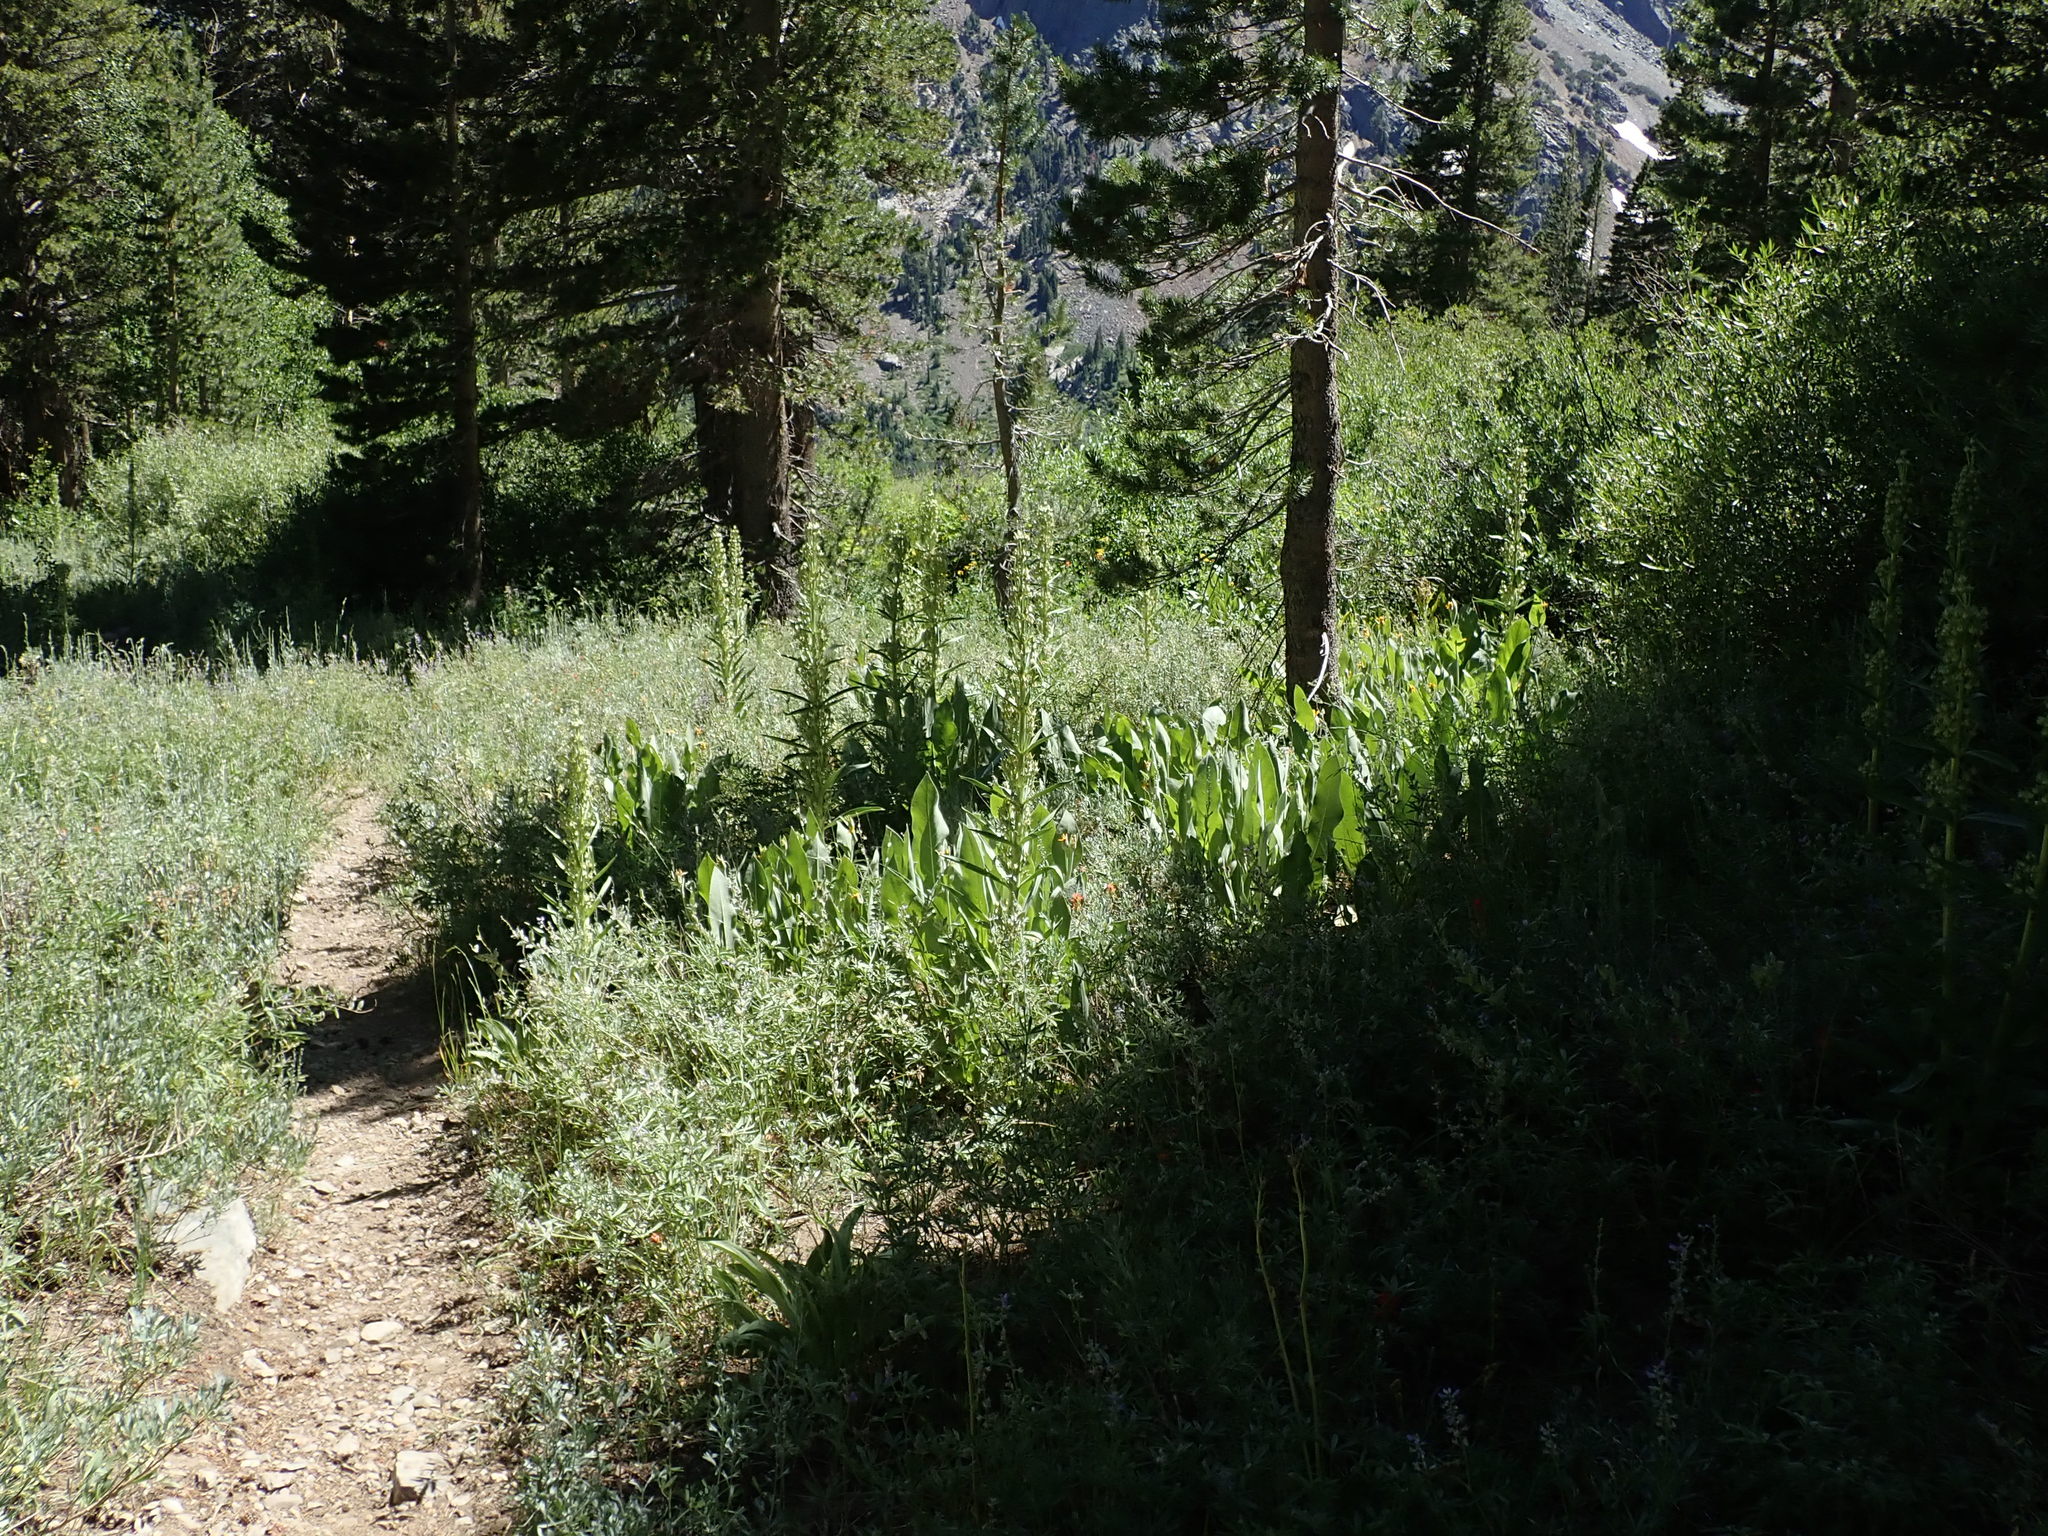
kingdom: Plantae
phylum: Tracheophyta
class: Magnoliopsida
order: Gentianales
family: Gentianaceae
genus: Frasera
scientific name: Frasera speciosa
